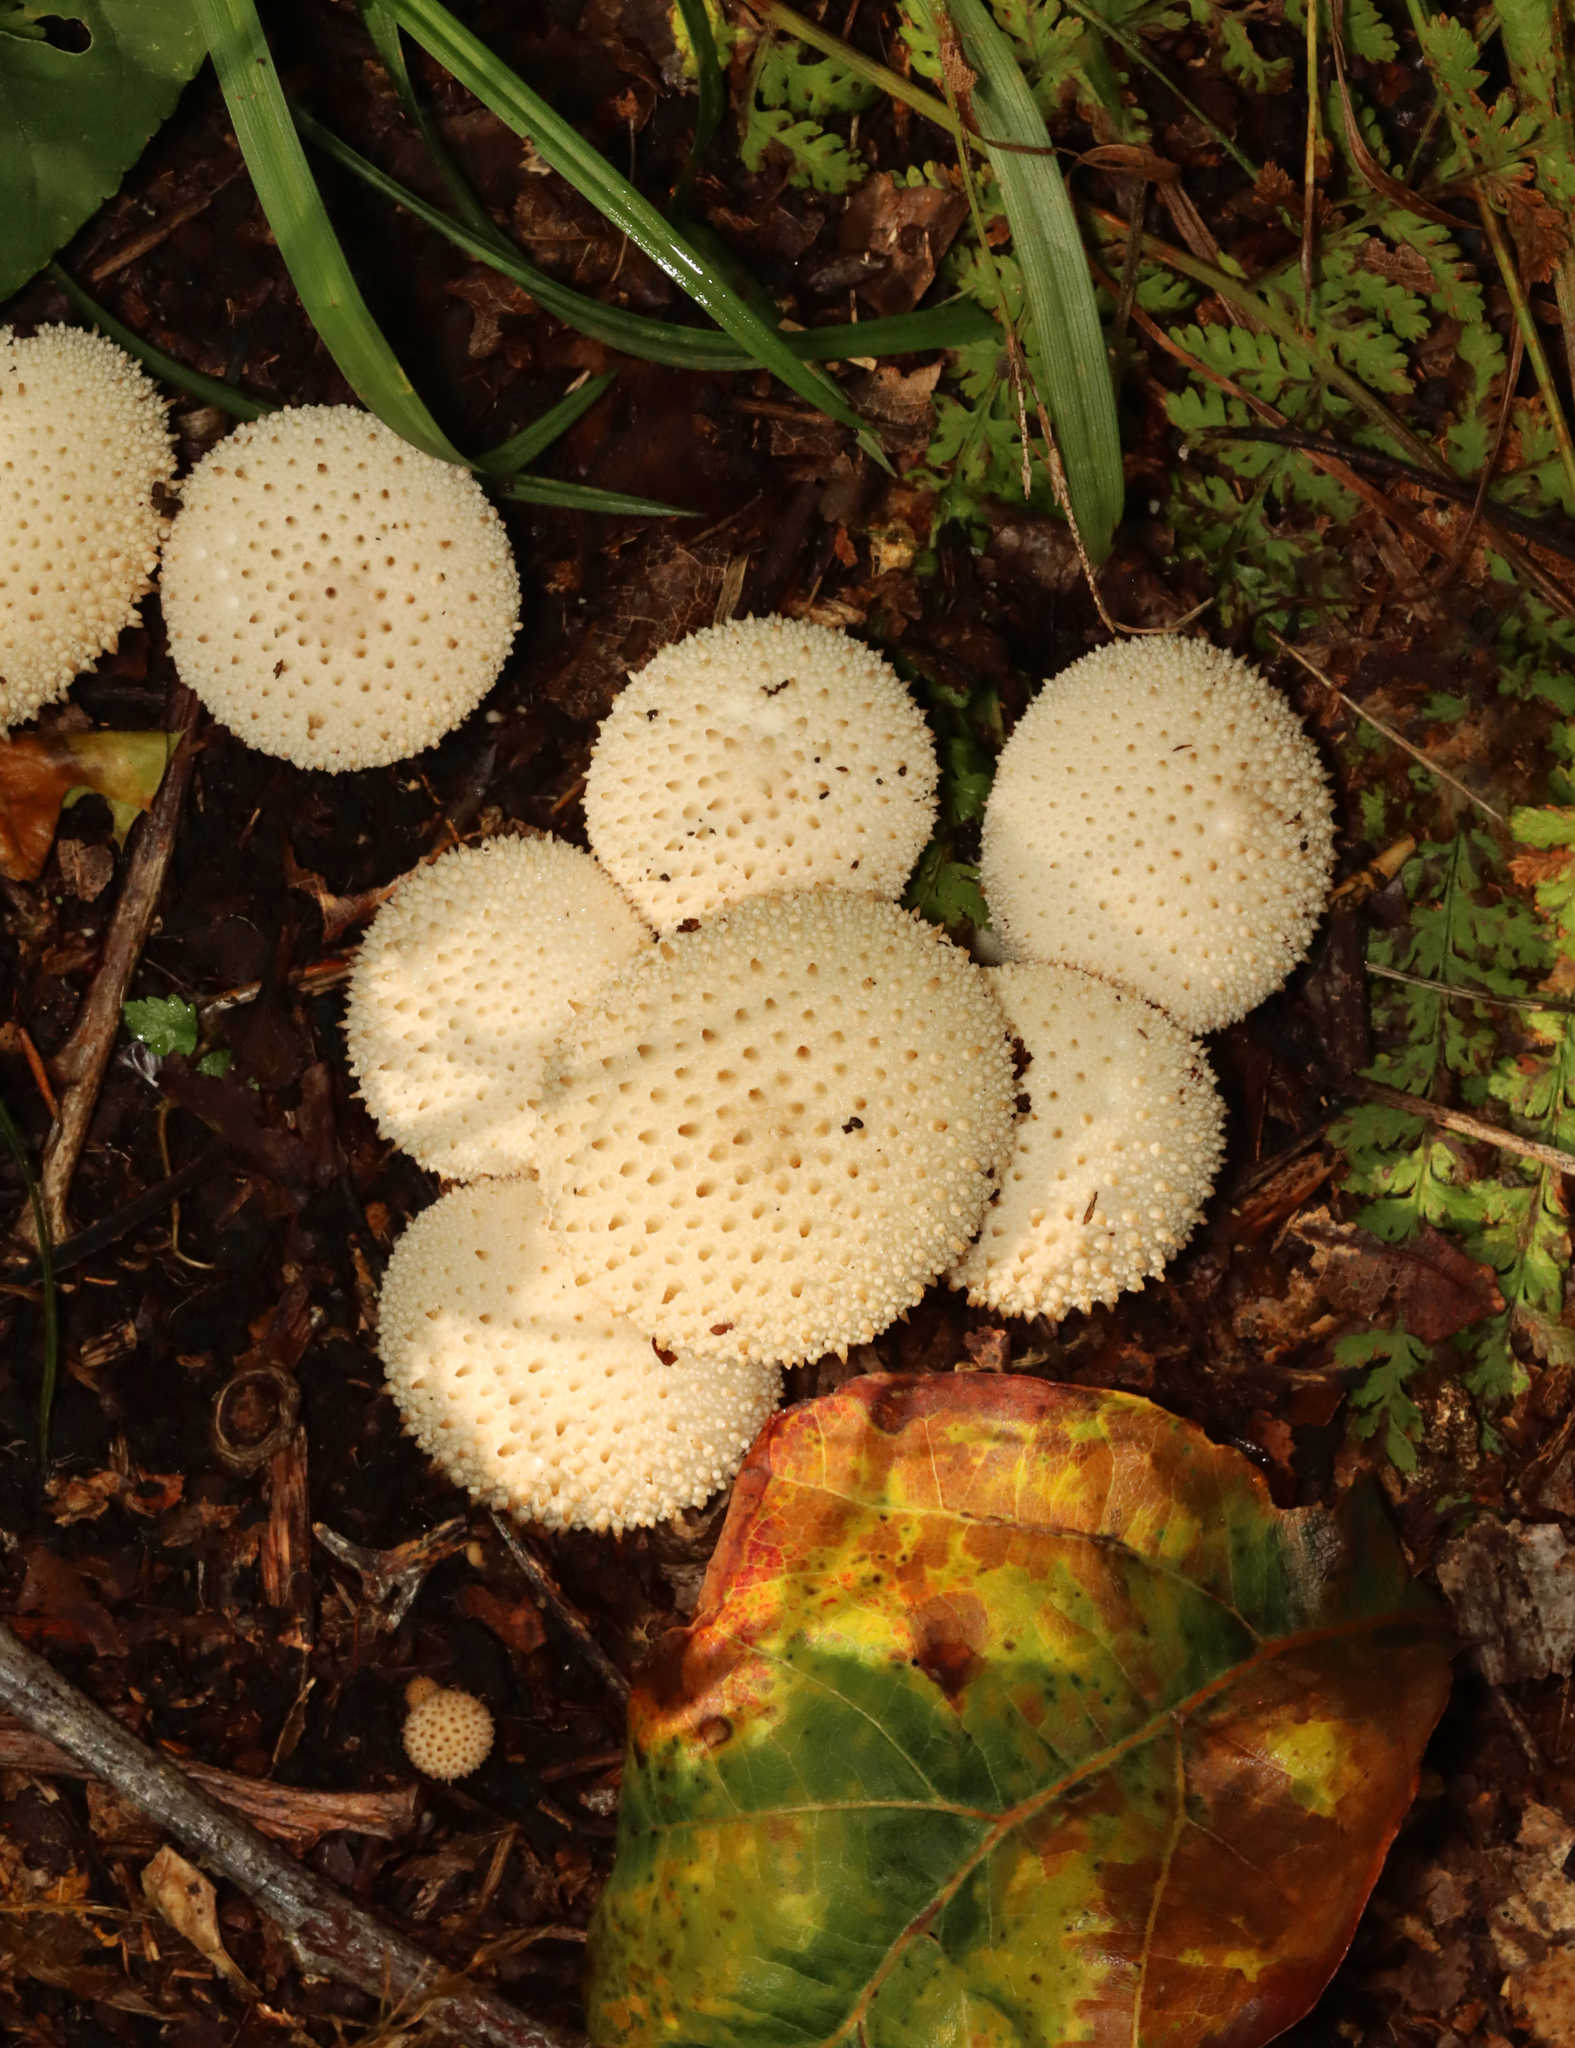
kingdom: Fungi
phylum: Basidiomycota
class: Agaricomycetes
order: Agaricales
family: Lycoperdaceae
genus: Lycoperdon
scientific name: Lycoperdon perlatum
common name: Common puffball
